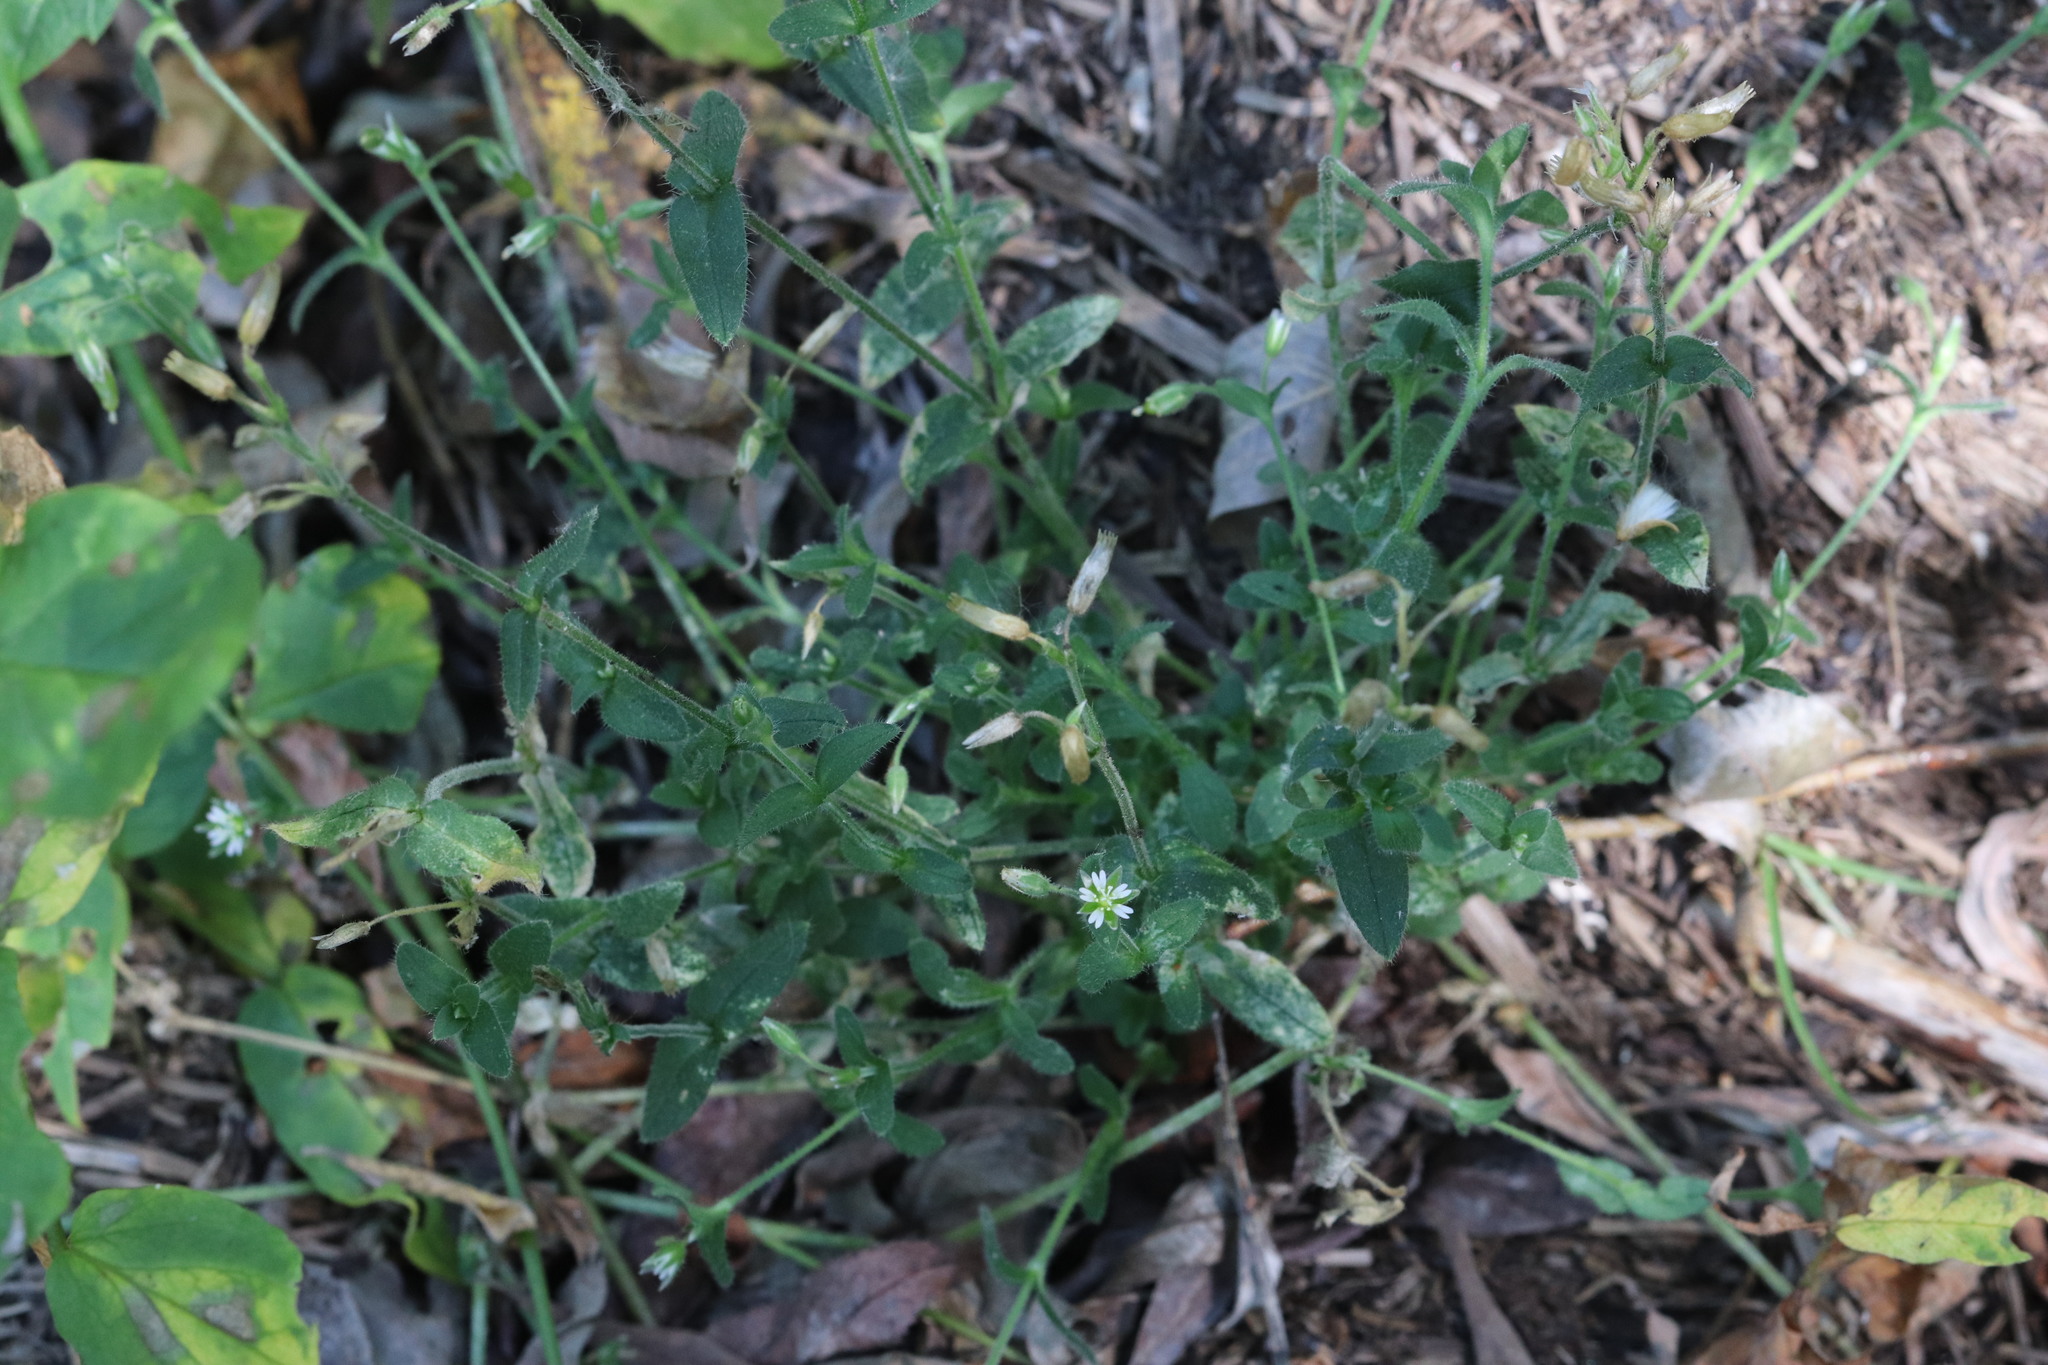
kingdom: Plantae
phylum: Tracheophyta
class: Magnoliopsida
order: Caryophyllales
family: Caryophyllaceae
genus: Cerastium
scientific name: Cerastium holosteoides
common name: Big chickweed
